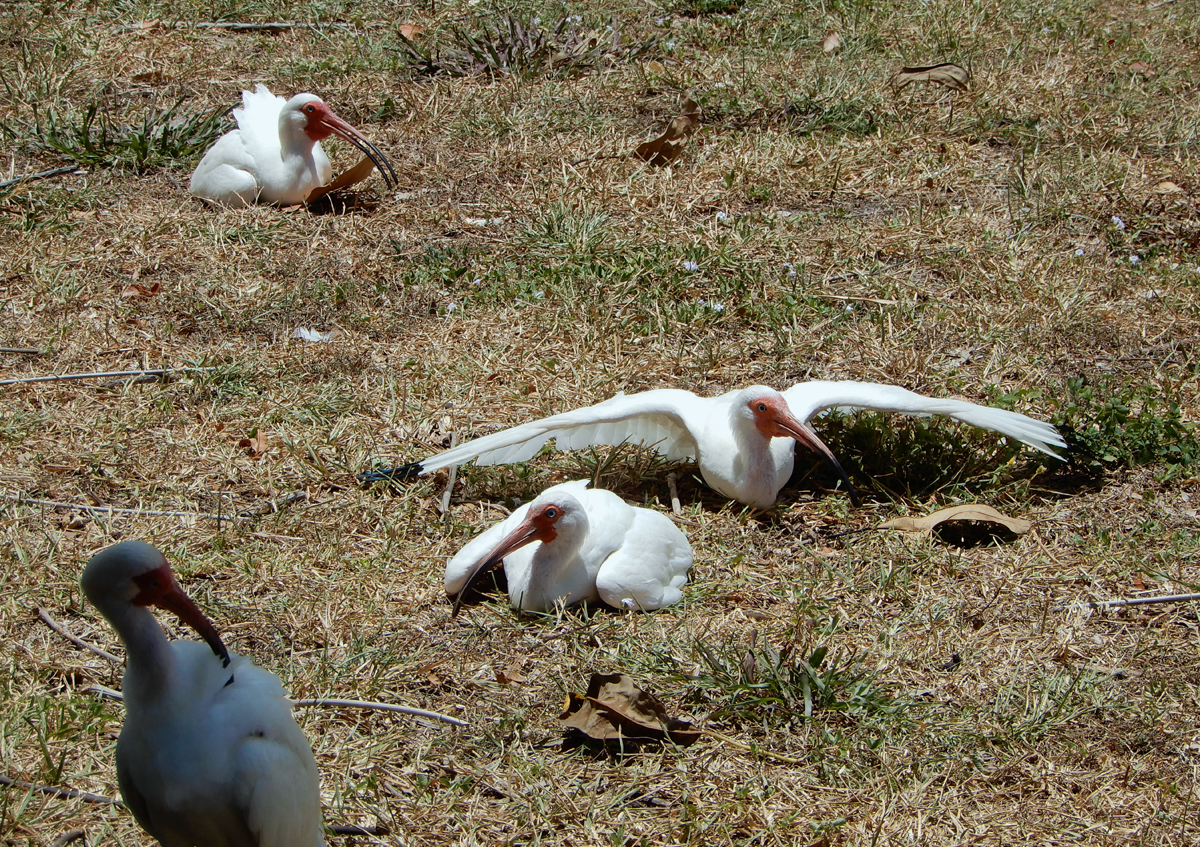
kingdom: Animalia
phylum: Chordata
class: Aves
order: Pelecaniformes
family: Threskiornithidae
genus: Eudocimus
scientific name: Eudocimus albus
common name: White ibis
